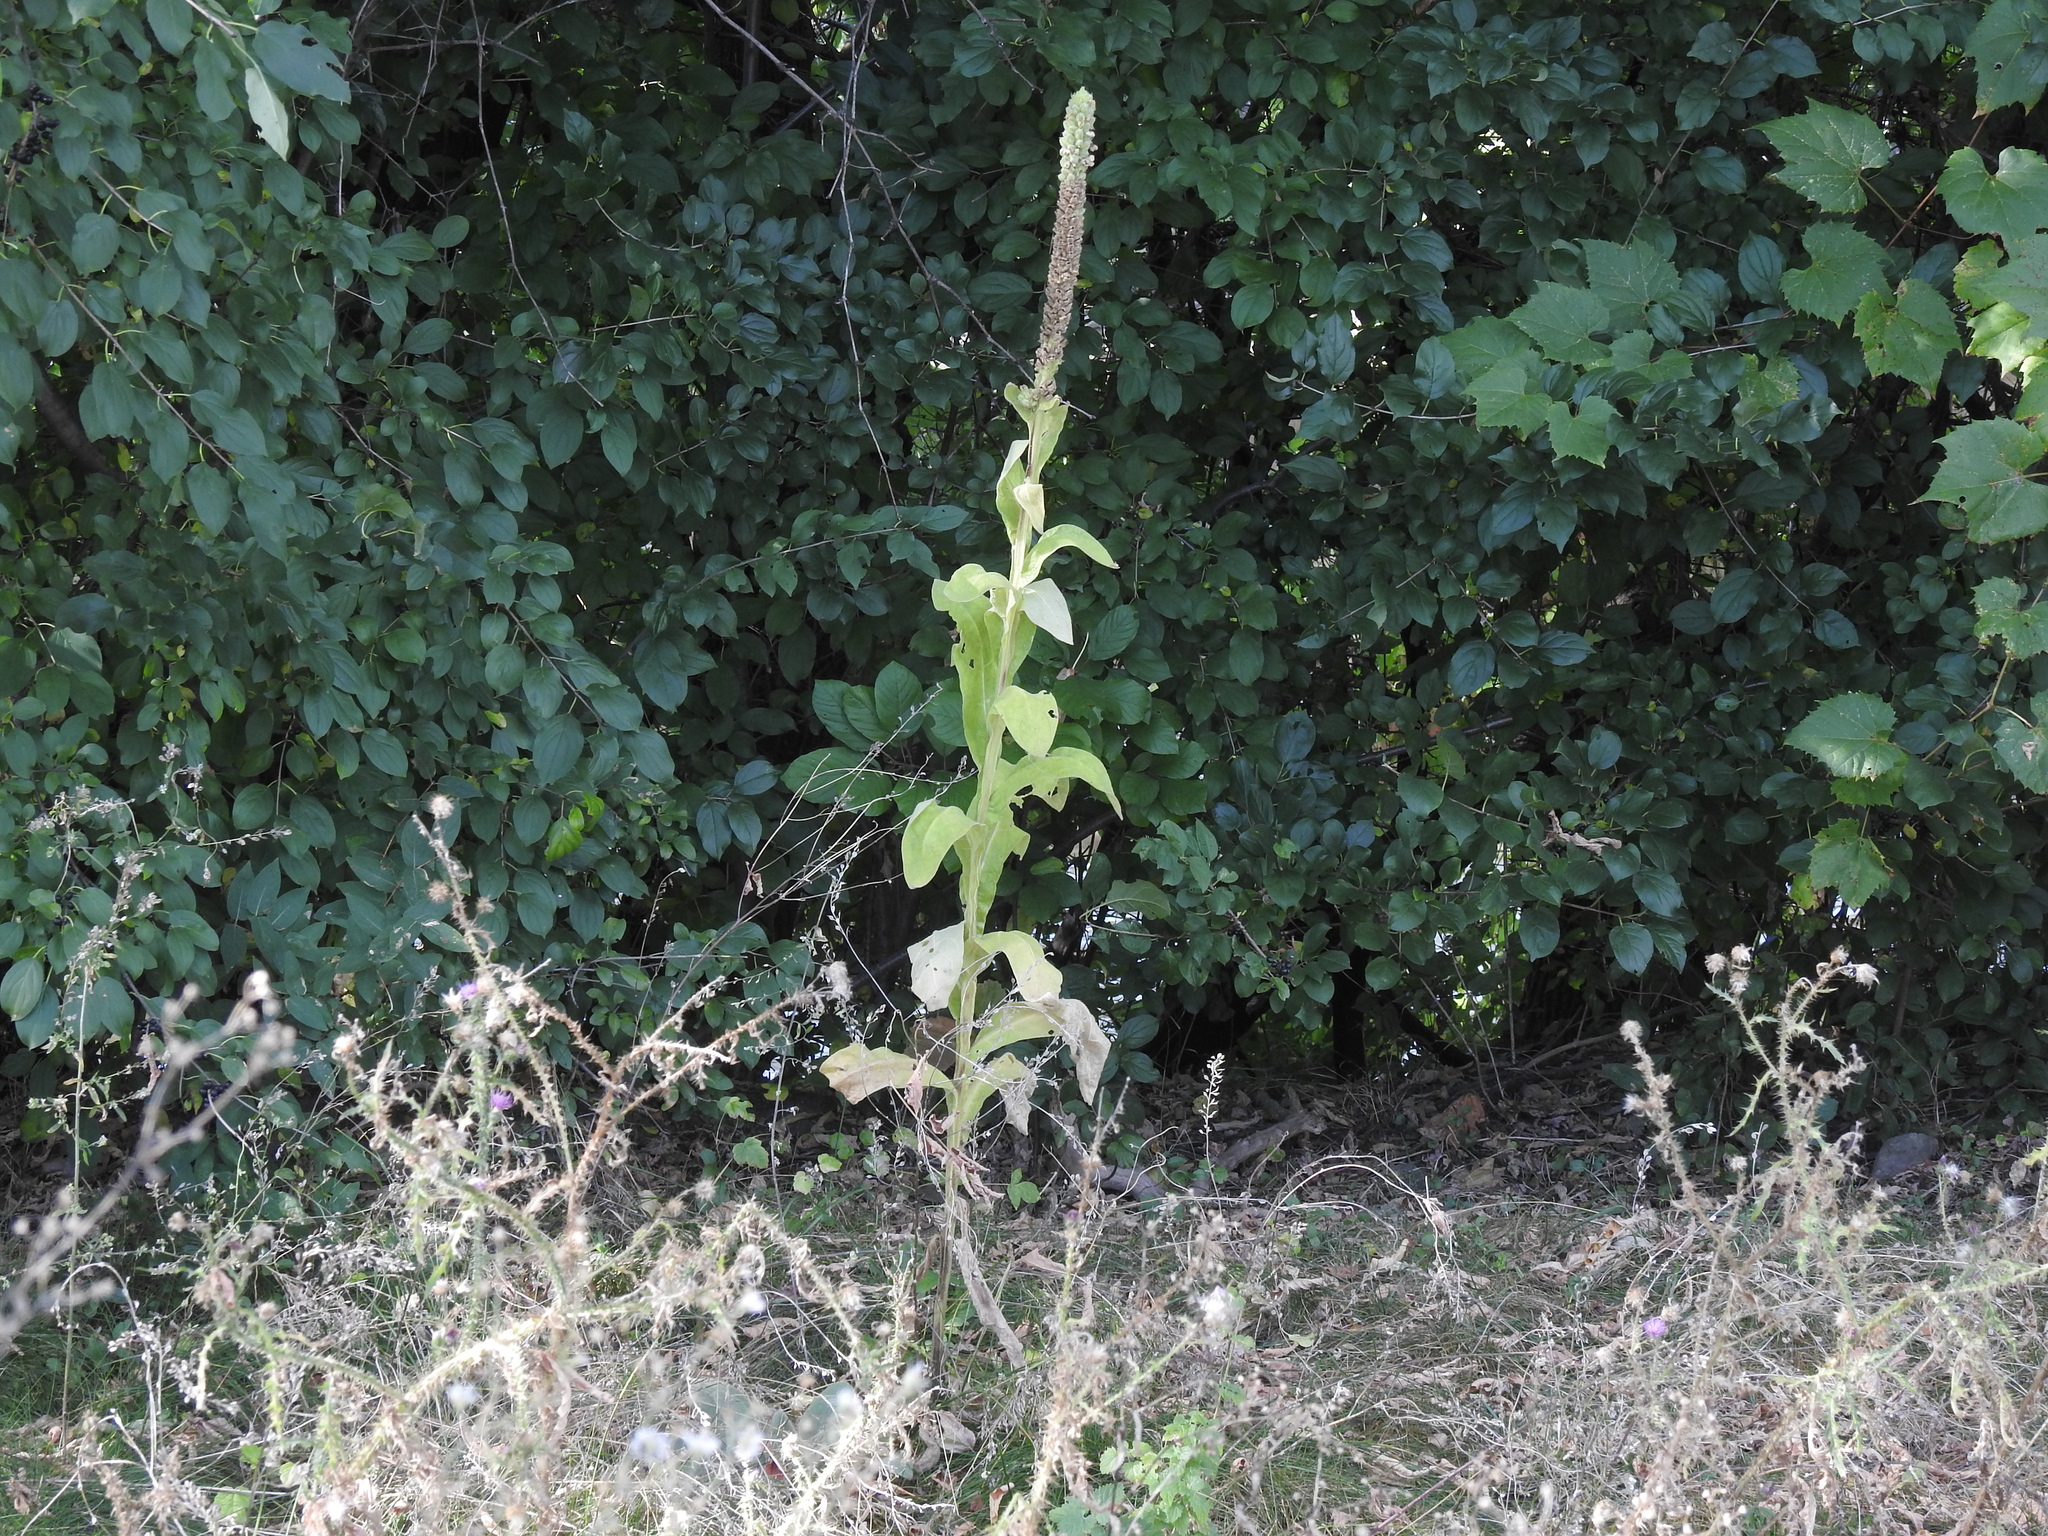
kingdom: Plantae
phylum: Tracheophyta
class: Magnoliopsida
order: Lamiales
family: Scrophulariaceae
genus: Verbascum
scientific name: Verbascum thapsus
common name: Common mullein
